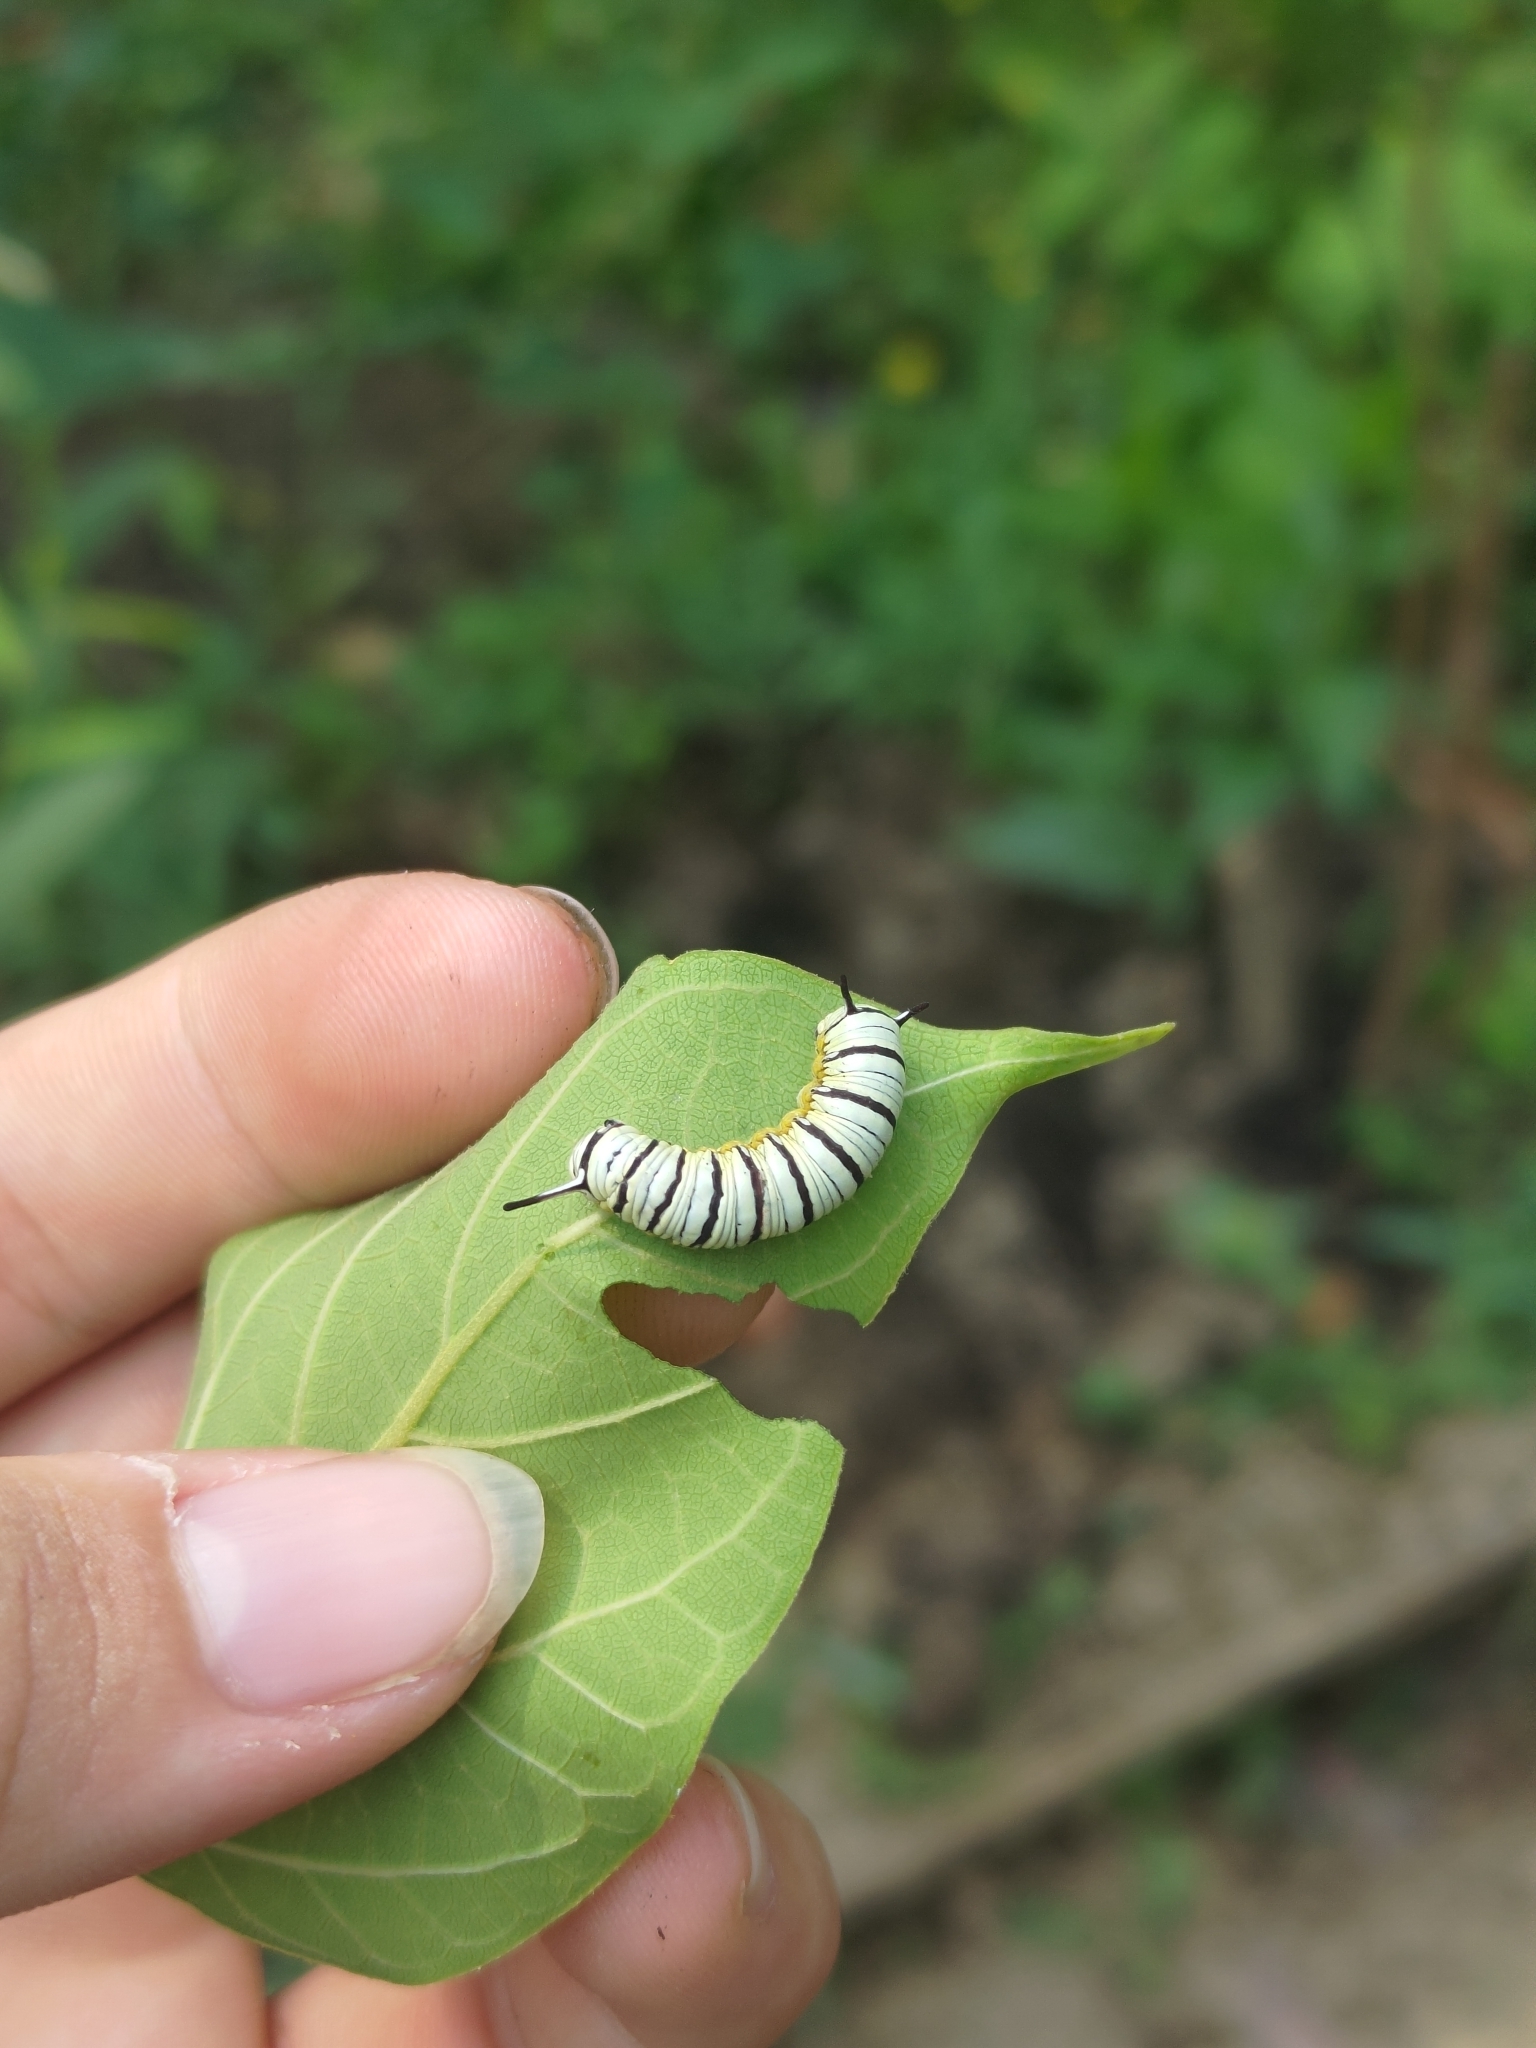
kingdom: Animalia
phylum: Arthropoda
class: Insecta
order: Lepidoptera
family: Nymphalidae
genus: Tirumala
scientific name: Tirumala limniace
